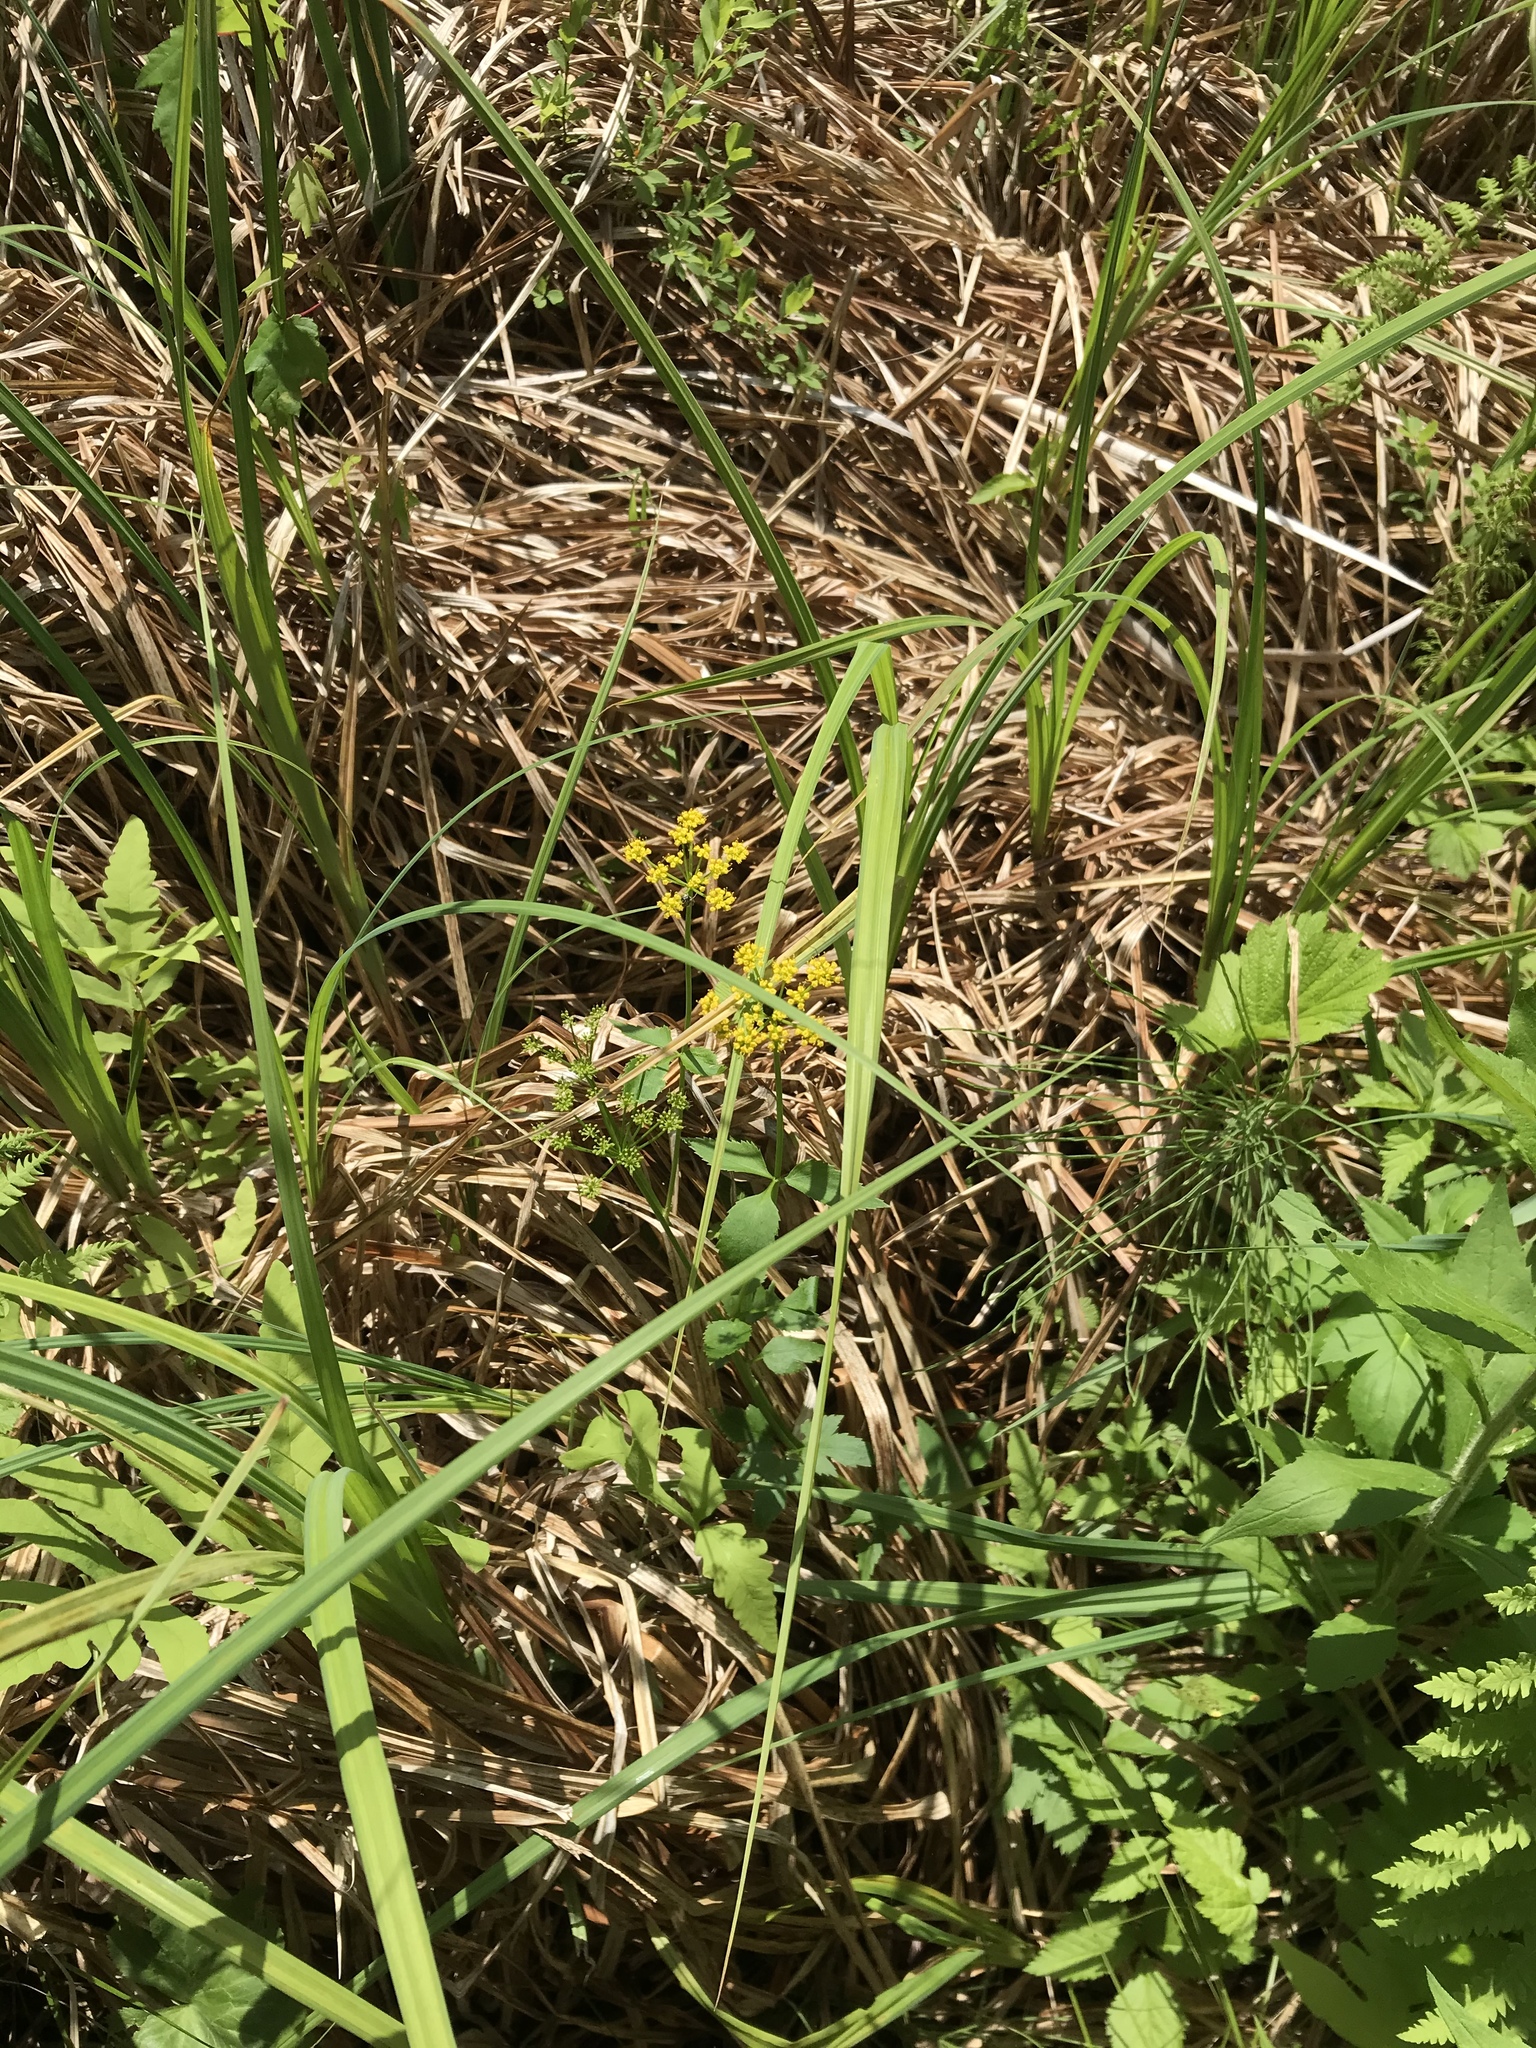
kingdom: Plantae
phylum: Tracheophyta
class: Magnoliopsida
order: Apiales
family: Apiaceae
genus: Zizia
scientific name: Zizia aurea
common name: Golden alexanders
